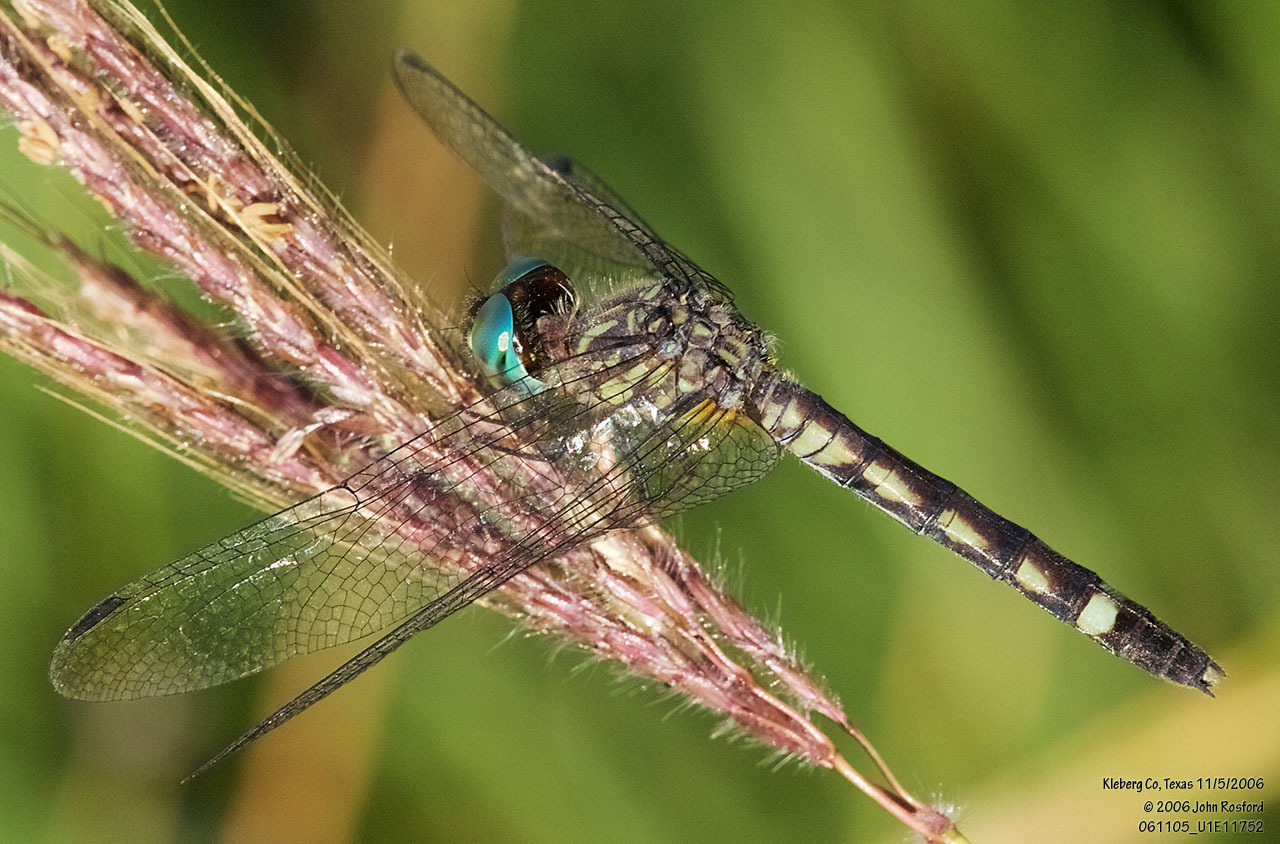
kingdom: Animalia
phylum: Arthropoda
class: Insecta
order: Odonata
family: Libellulidae
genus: Micrathyria
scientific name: Micrathyria hagenii
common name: Thornbush dasher
